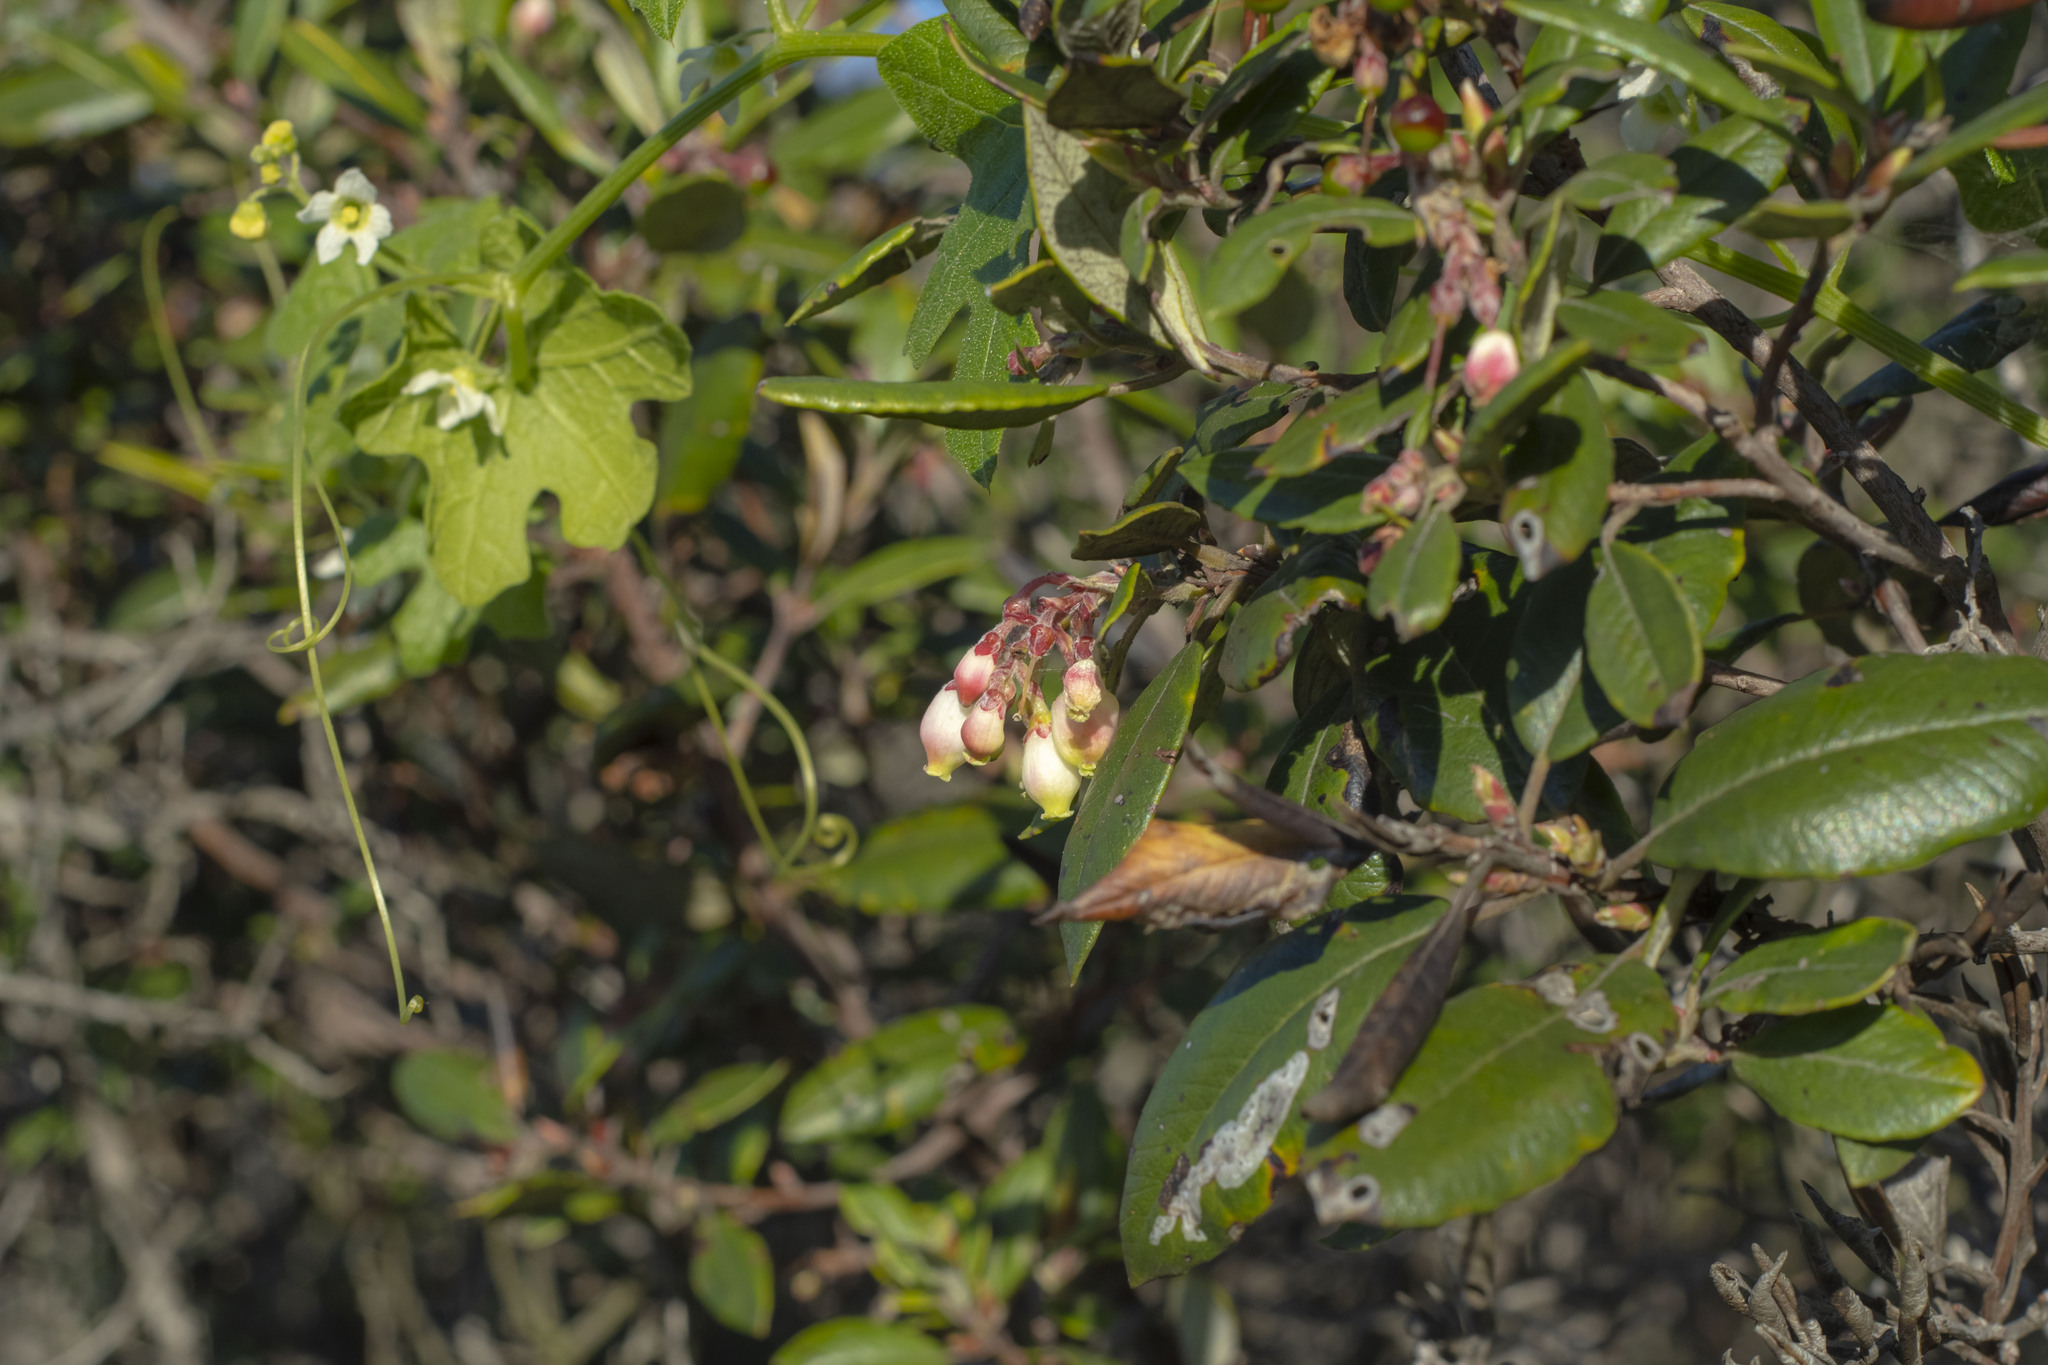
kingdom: Plantae
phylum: Tracheophyta
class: Magnoliopsida
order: Ericales
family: Ericaceae
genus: Arctostaphylos
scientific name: Arctostaphylos bicolor
